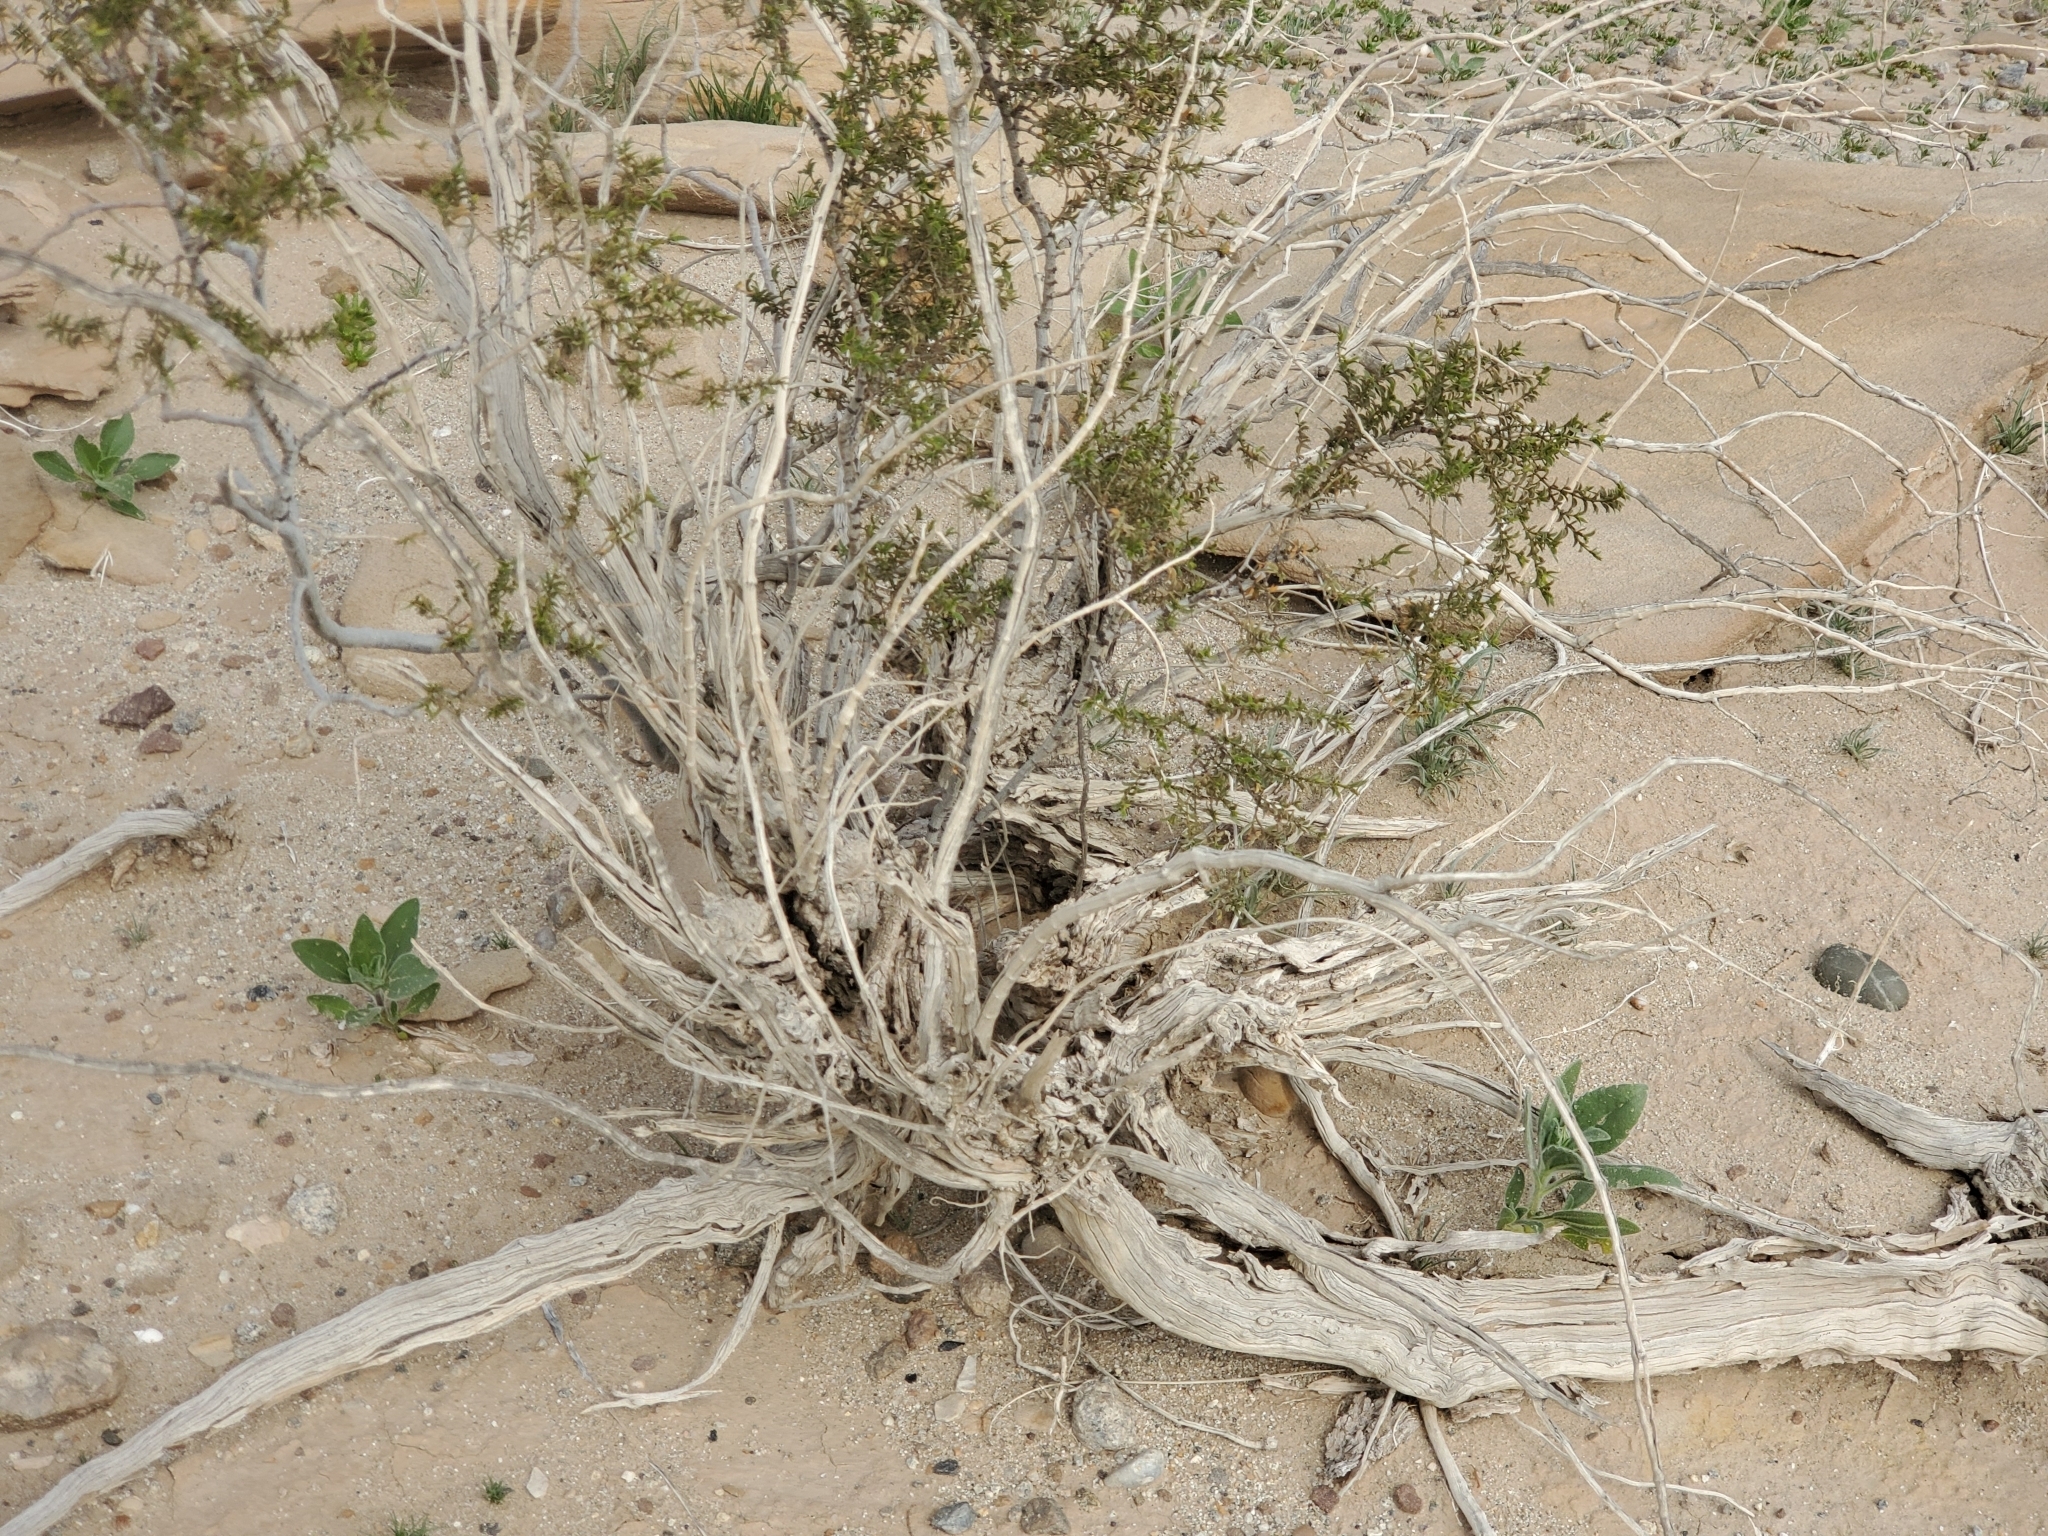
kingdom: Plantae
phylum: Tracheophyta
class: Magnoliopsida
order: Zygophyllales
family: Zygophyllaceae
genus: Larrea
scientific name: Larrea tridentata
